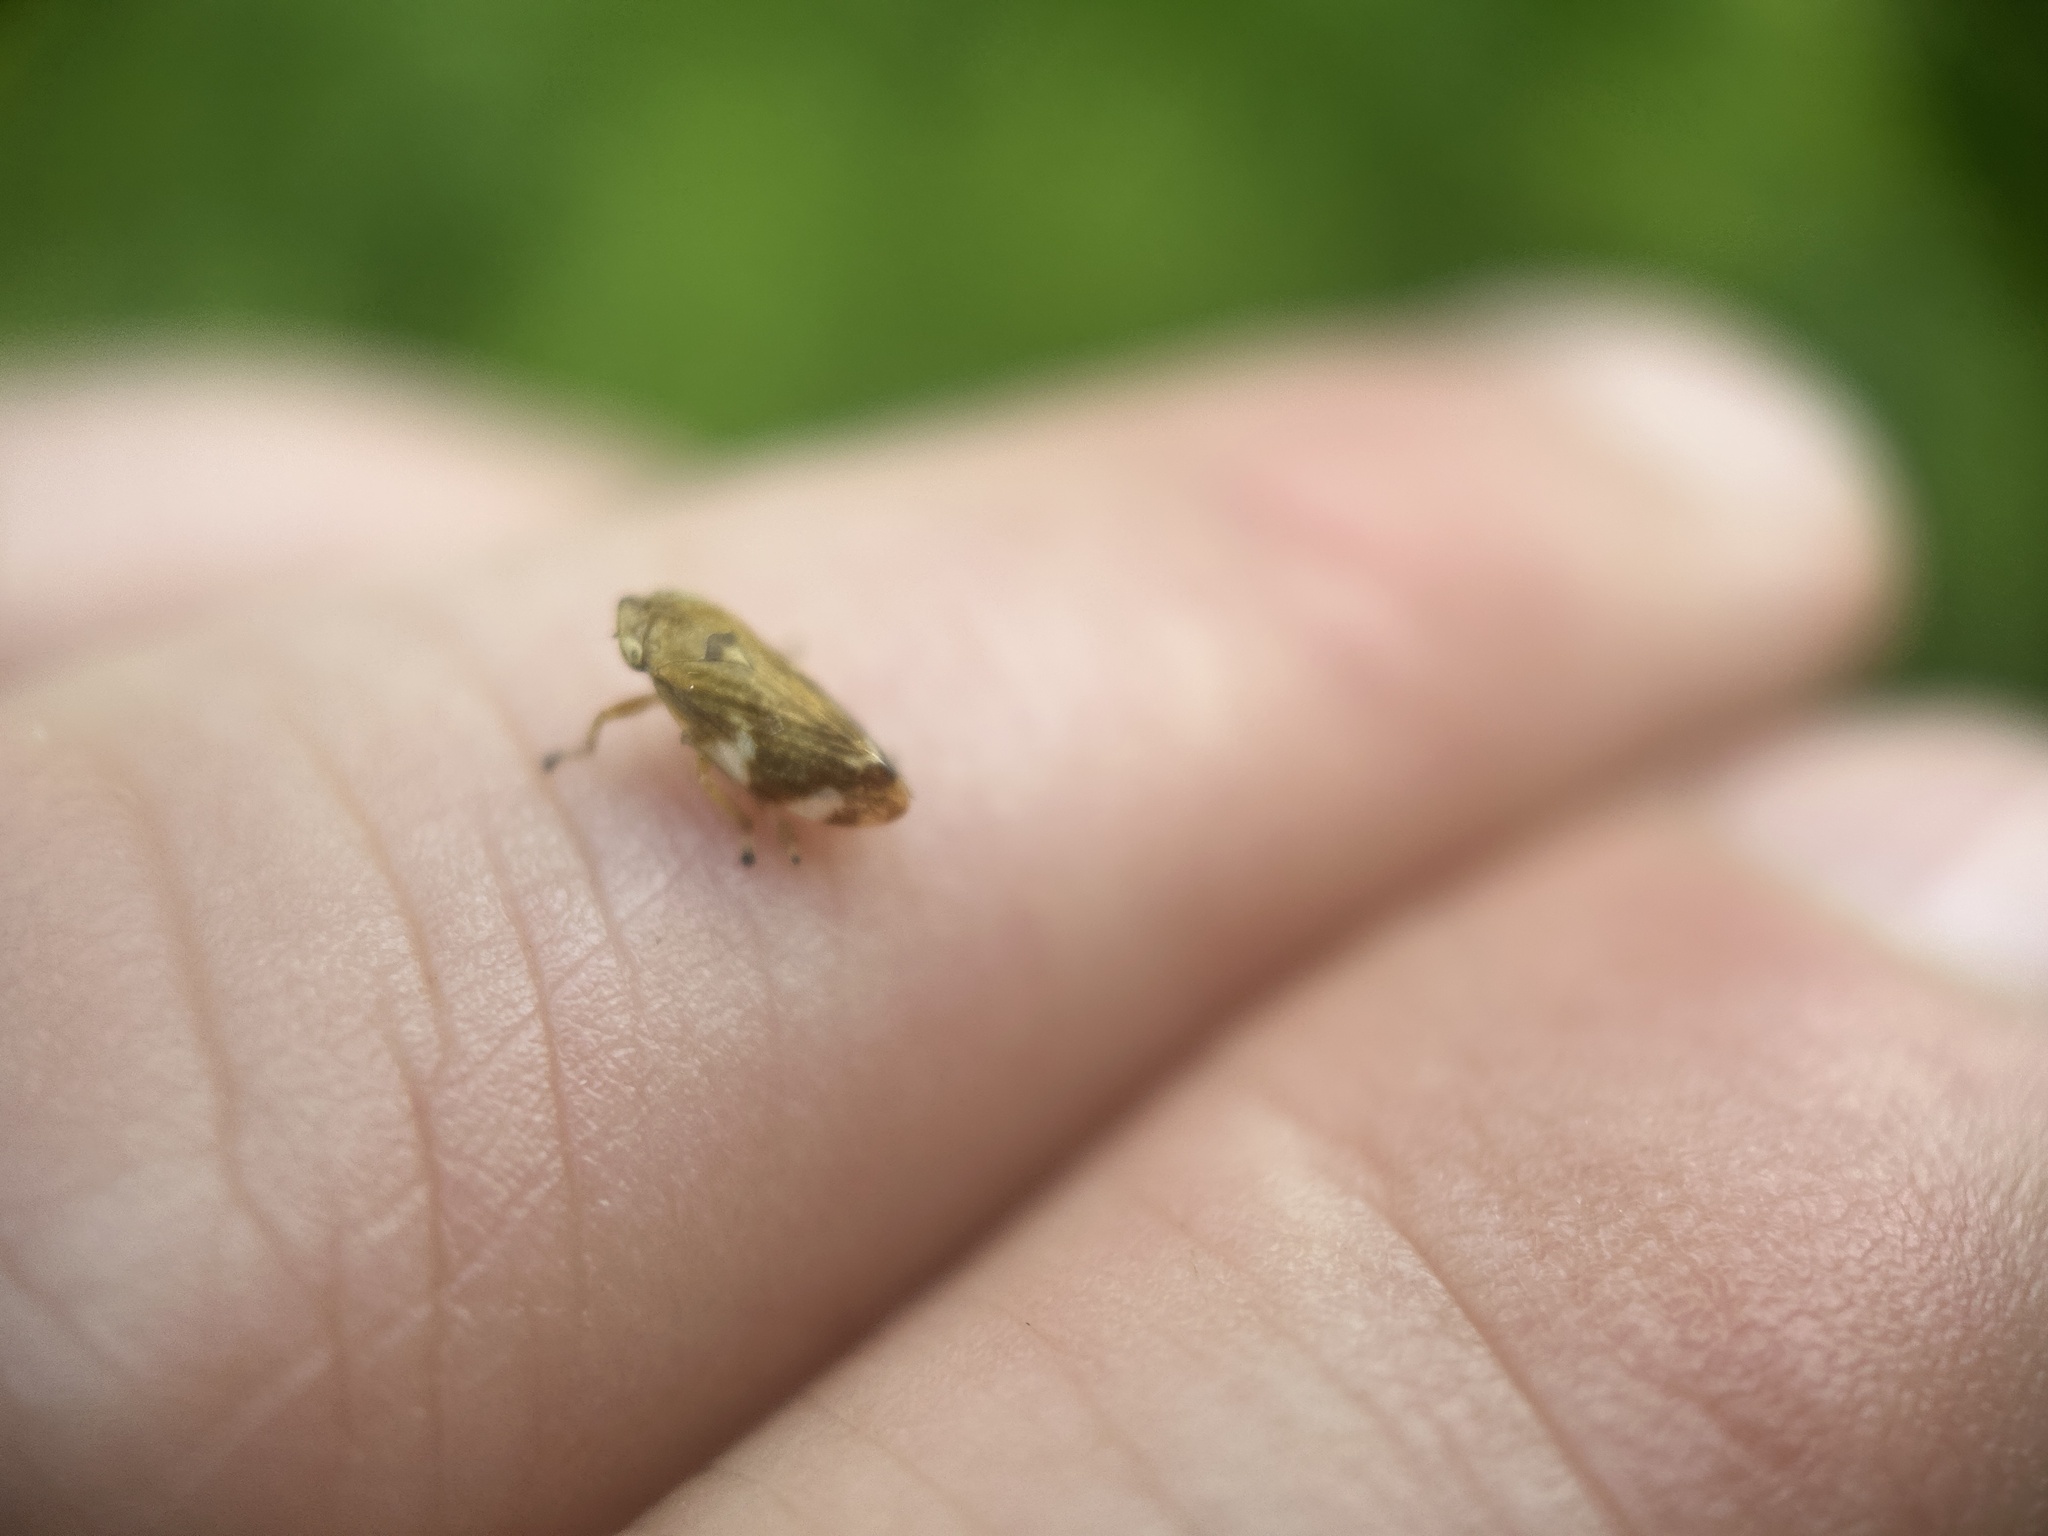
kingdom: Animalia
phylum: Arthropoda
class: Insecta
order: Hemiptera
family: Aphrophoridae
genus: Philaenus
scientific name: Philaenus spumarius
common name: Meadow spittlebug
